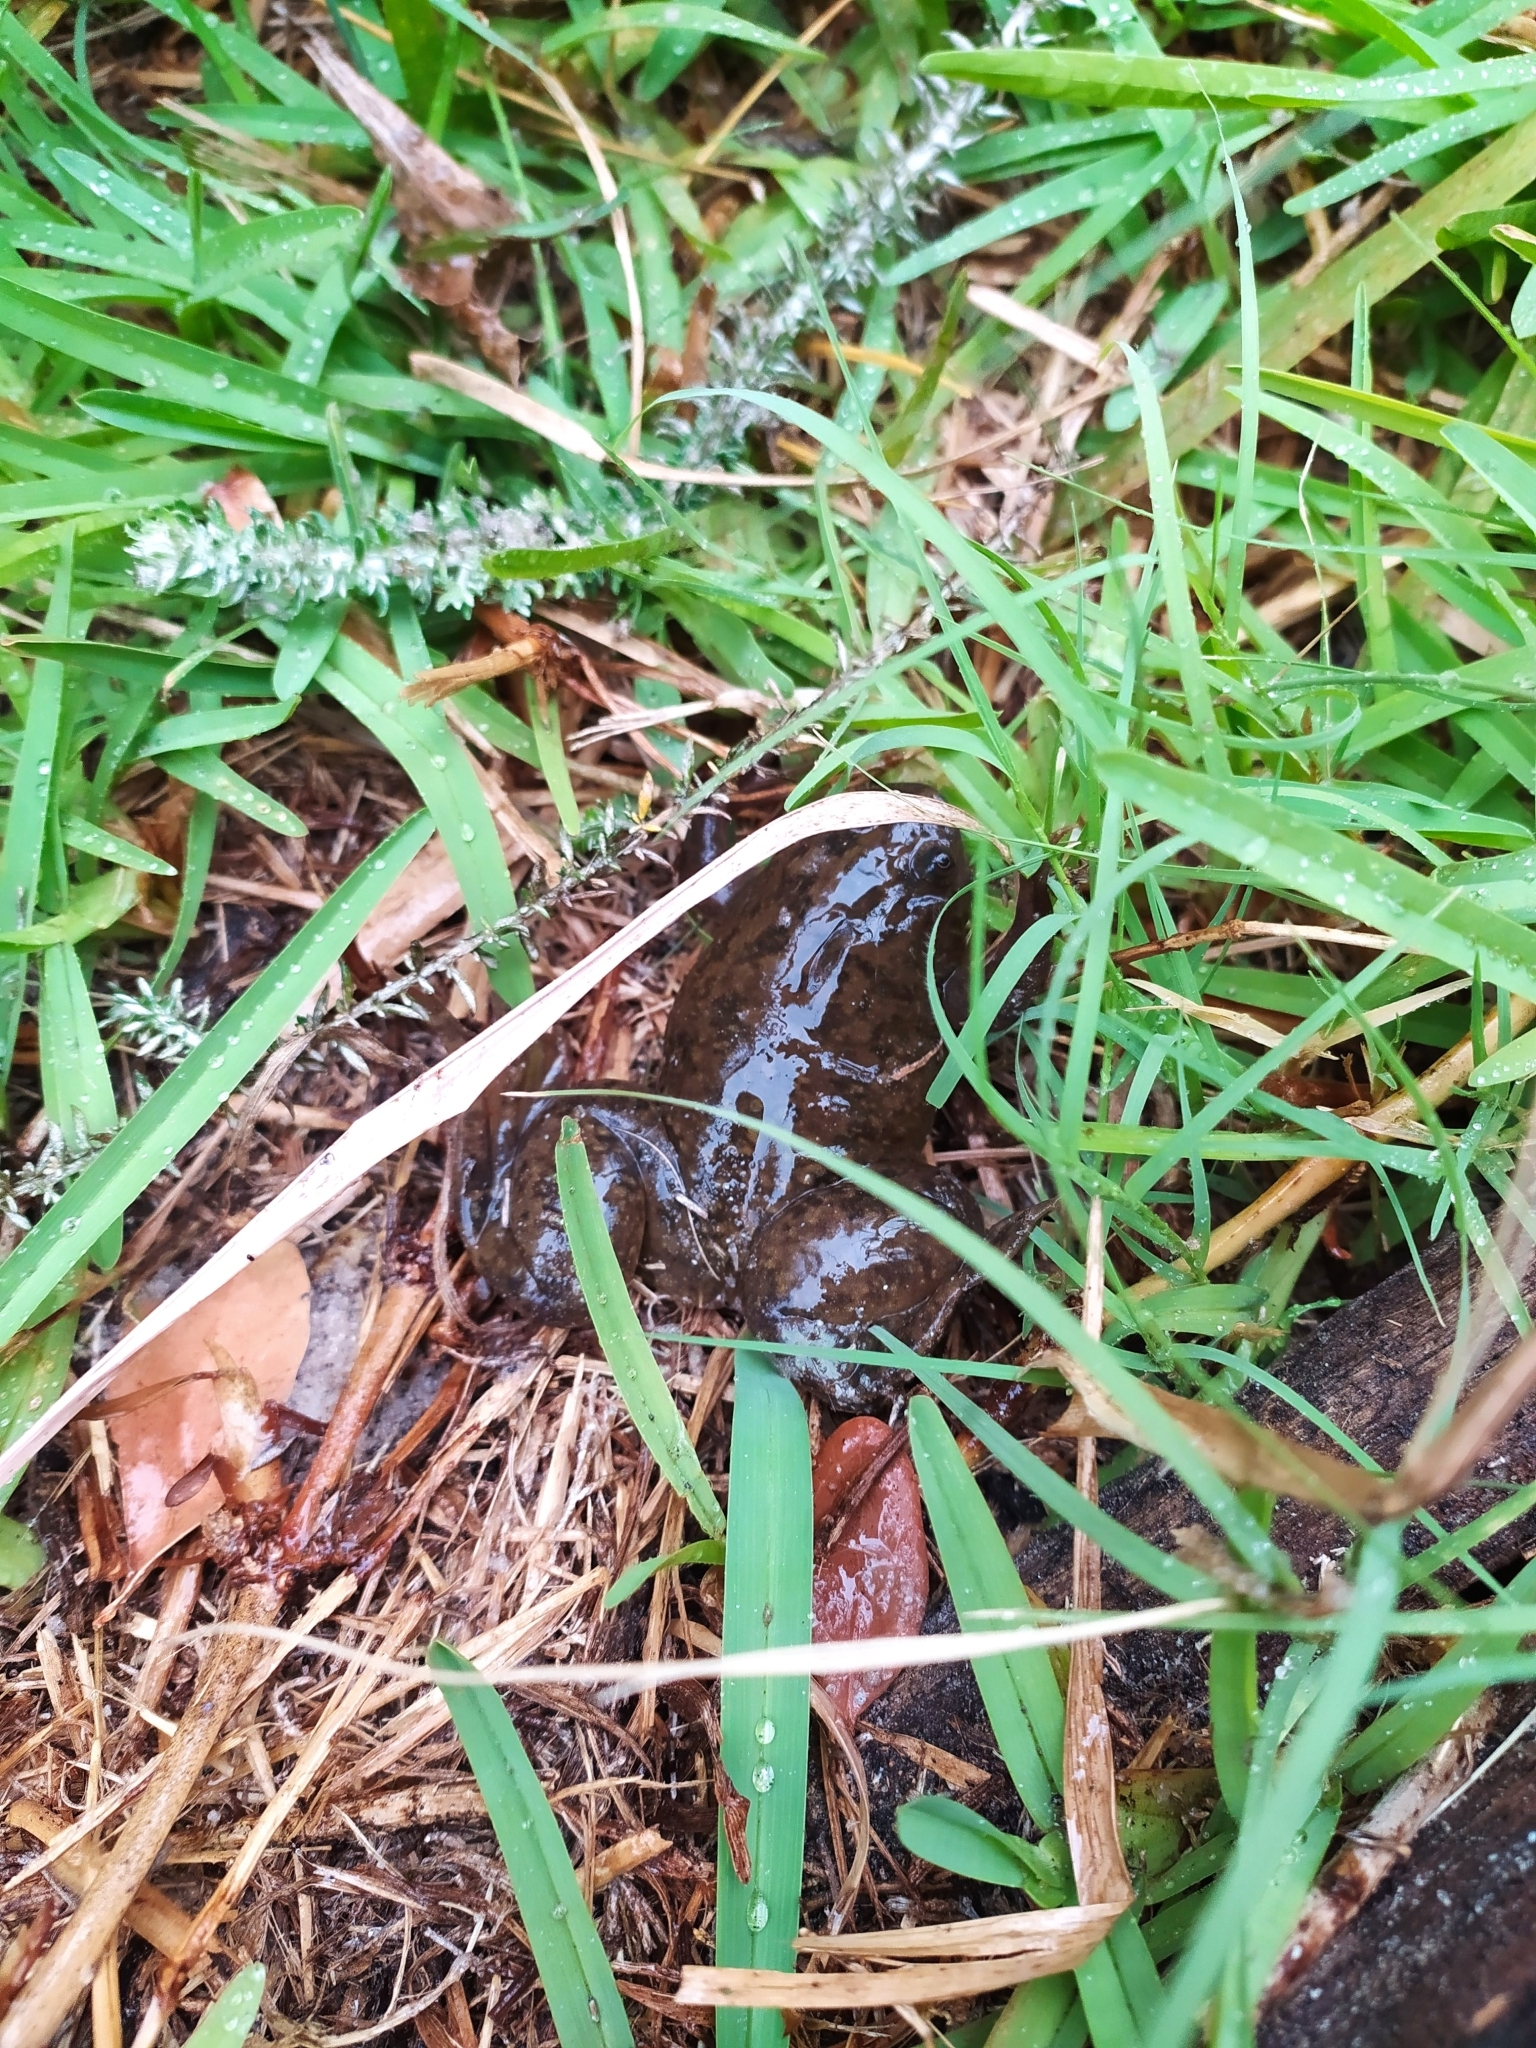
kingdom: Animalia
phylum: Chordata
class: Amphibia
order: Anura
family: Pipidae
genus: Xenopus
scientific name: Xenopus laevis
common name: African clawed frog
